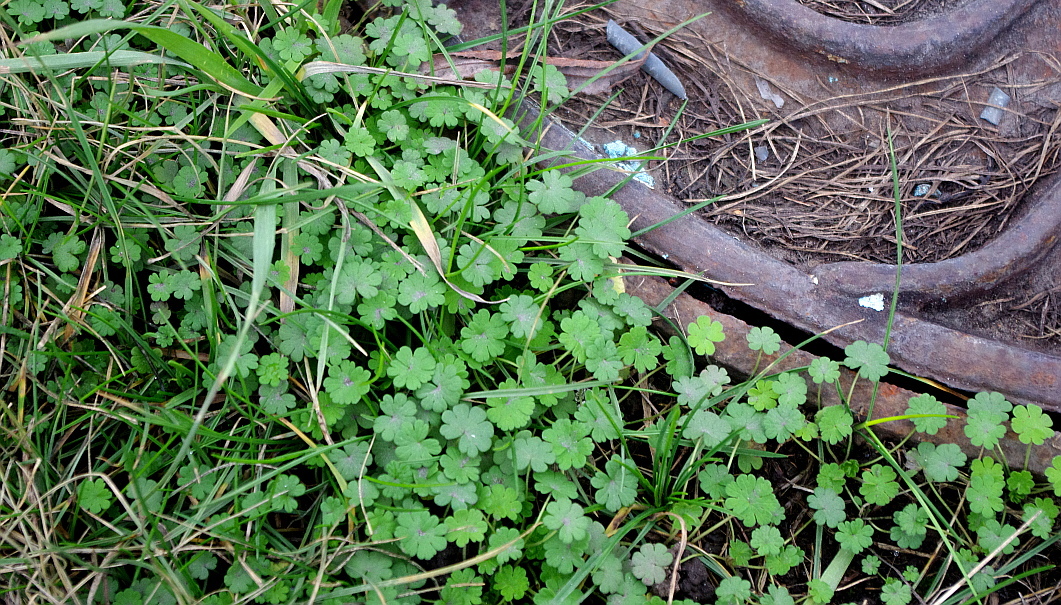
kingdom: Plantae
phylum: Tracheophyta
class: Magnoliopsida
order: Geraniales
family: Geraniaceae
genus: Geranium
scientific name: Geranium pusillum
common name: Small geranium
